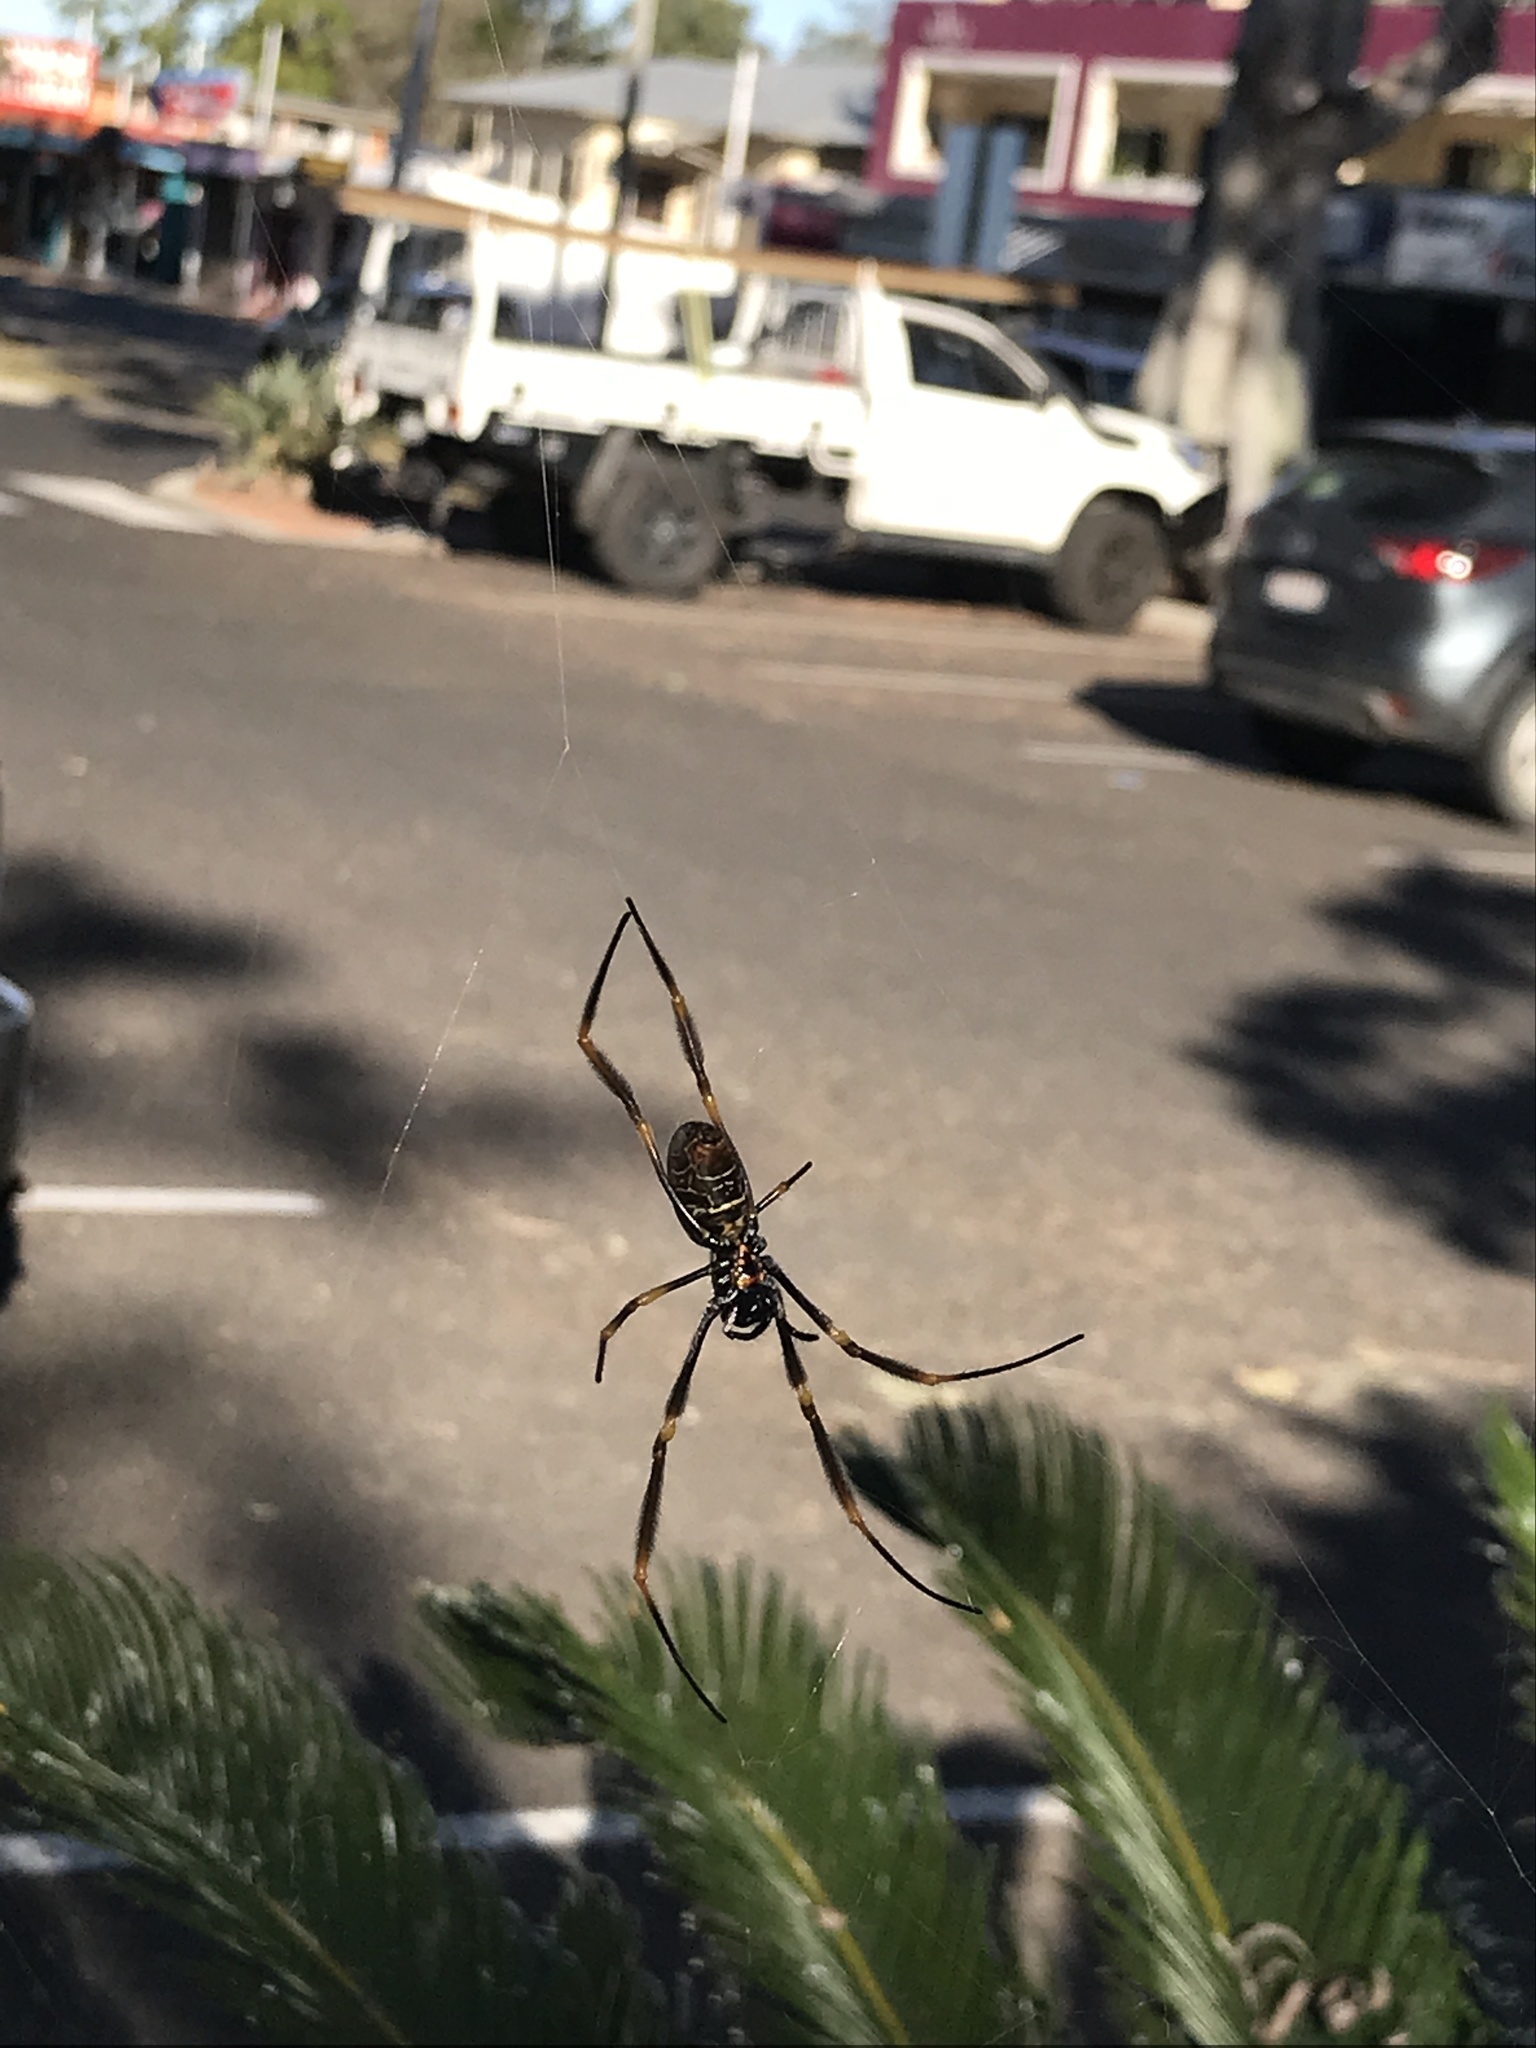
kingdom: Animalia
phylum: Arthropoda
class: Arachnida
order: Araneae
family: Araneidae
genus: Trichonephila
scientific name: Trichonephila plumipes
